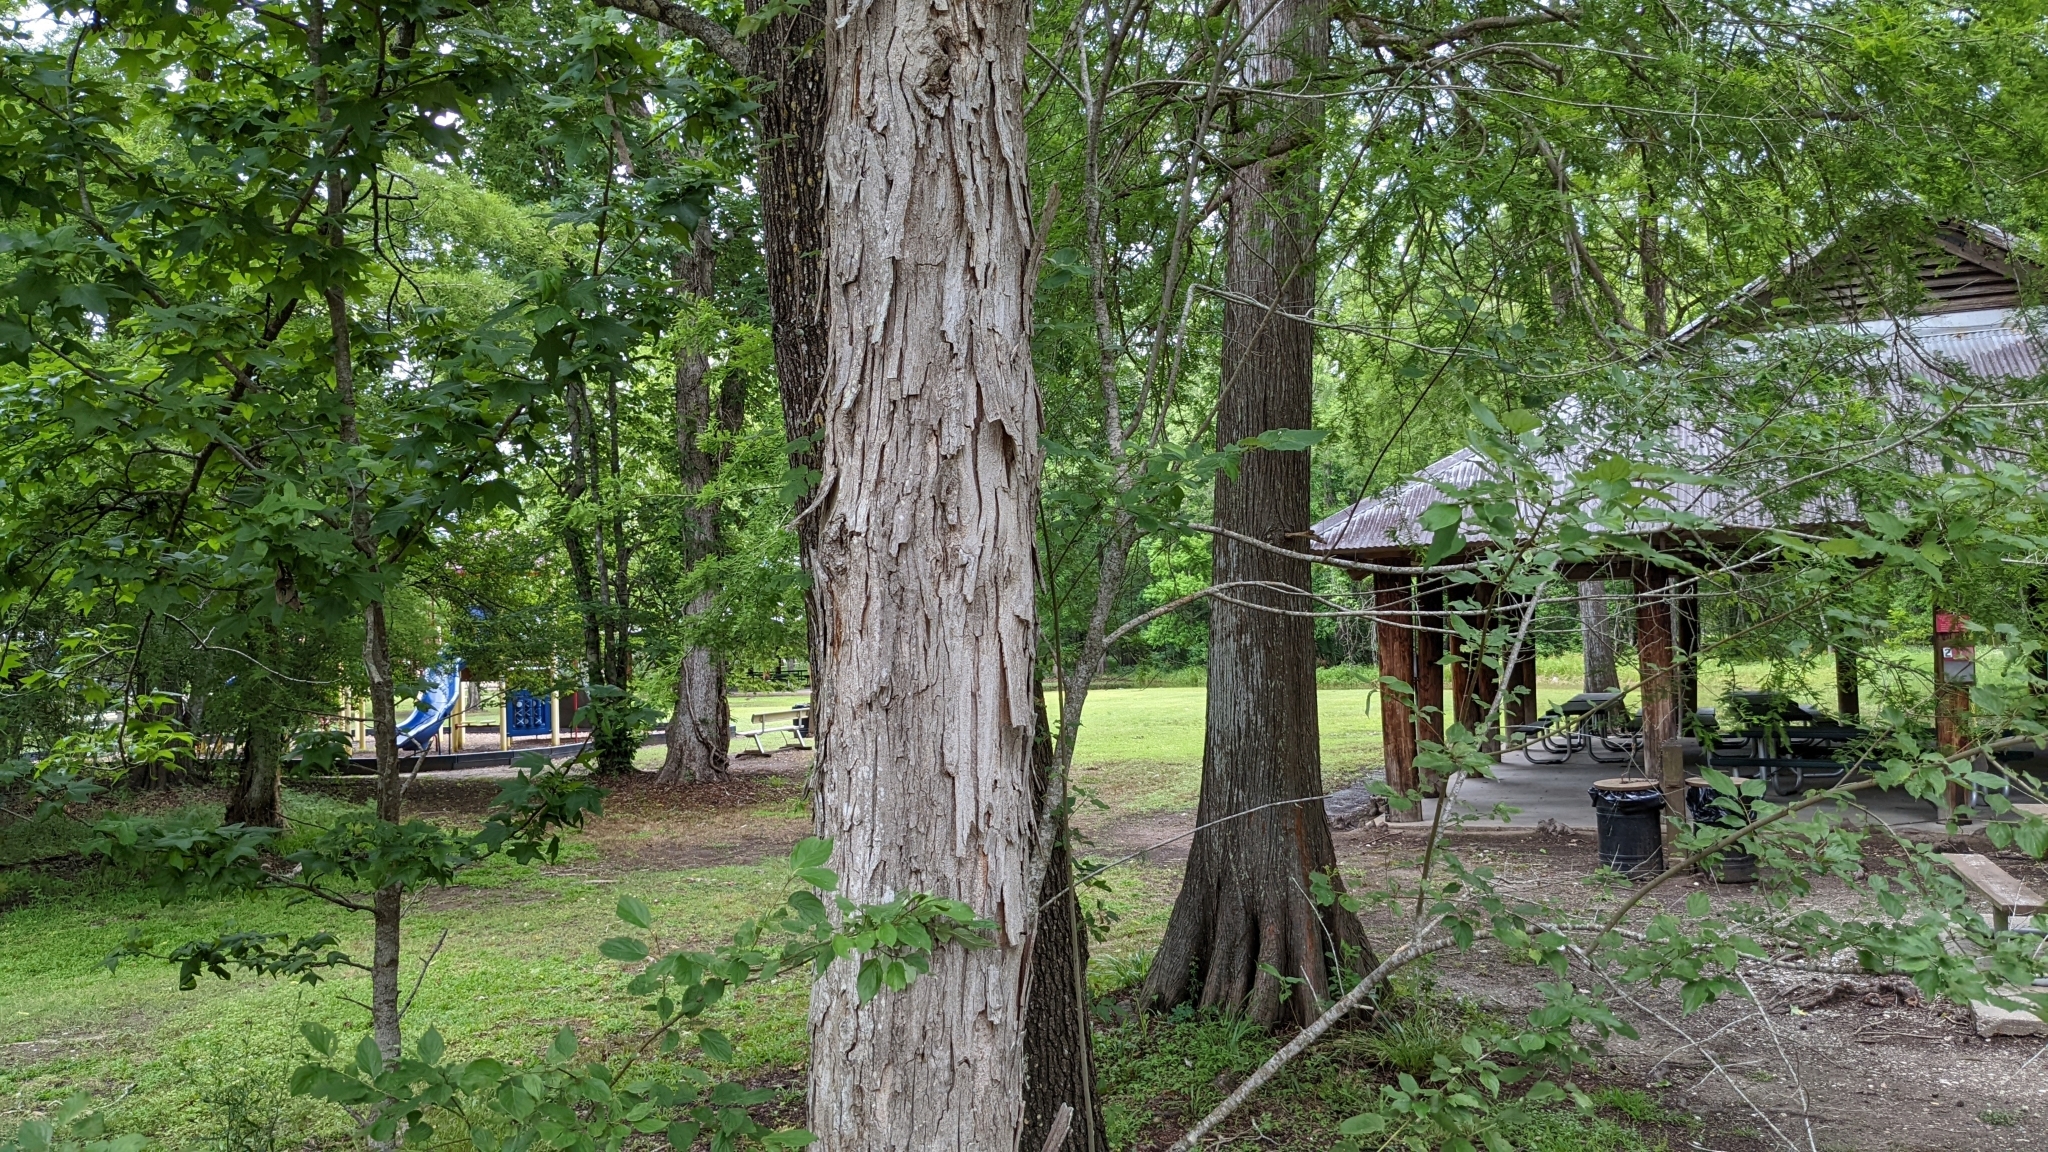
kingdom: Plantae
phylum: Tracheophyta
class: Magnoliopsida
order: Fagales
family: Juglandaceae
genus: Carya
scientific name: Carya aquatica
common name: Water hickory
